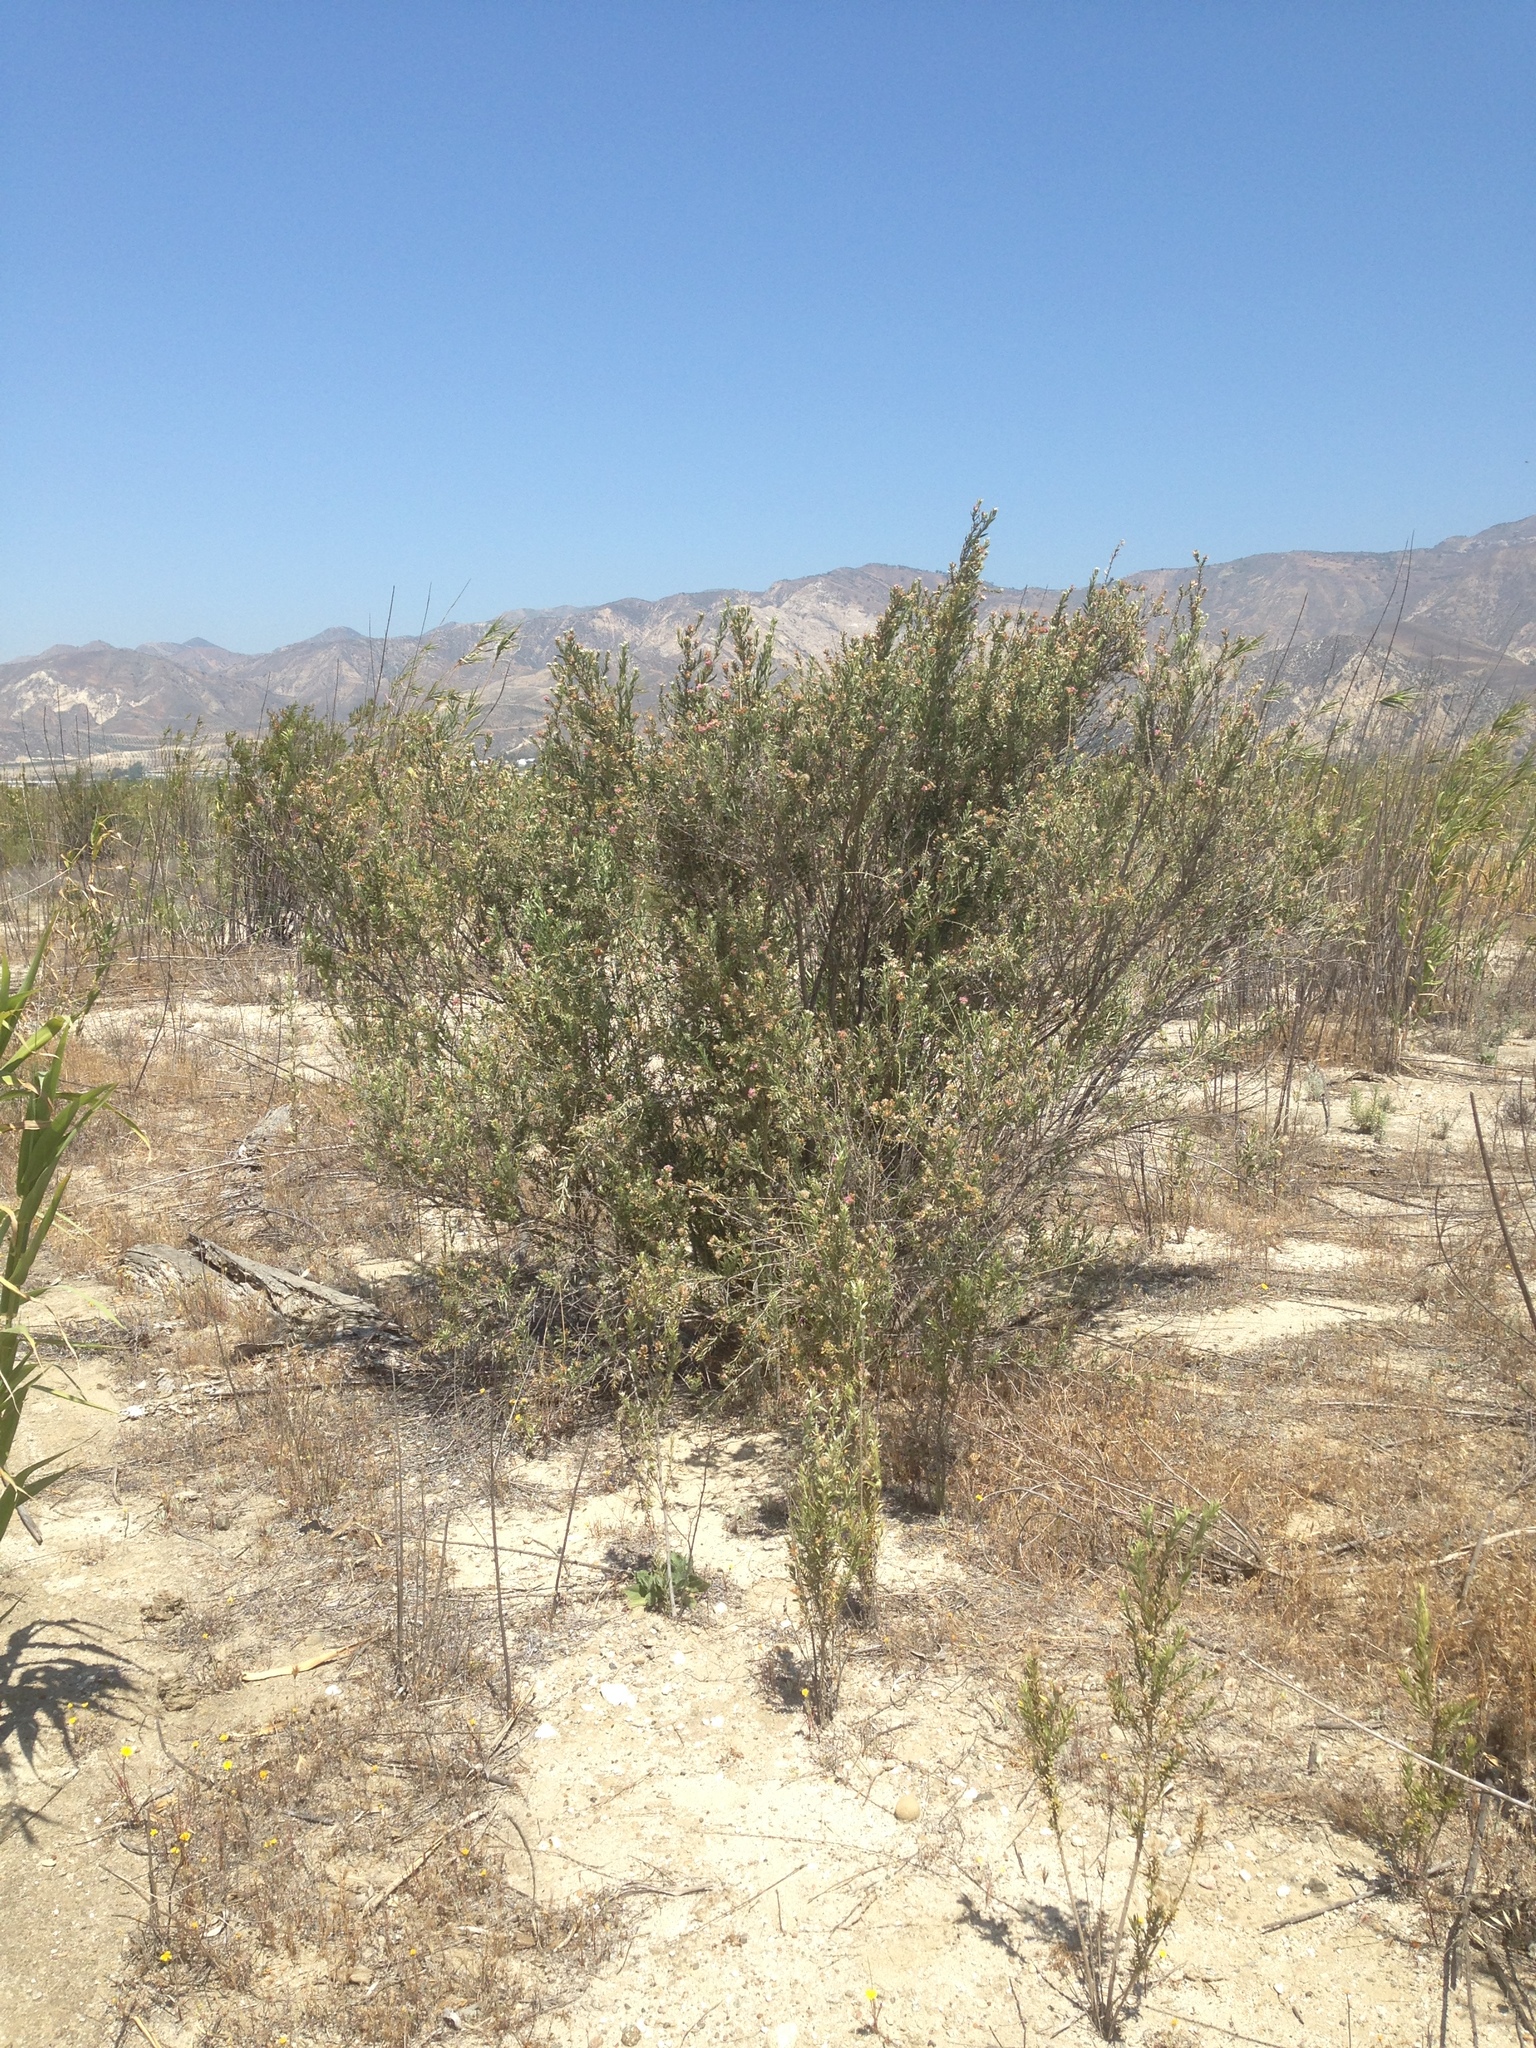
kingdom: Plantae
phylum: Tracheophyta
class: Magnoliopsida
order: Asterales
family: Asteraceae
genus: Pluchea
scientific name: Pluchea sericea
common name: Arrow-weed
